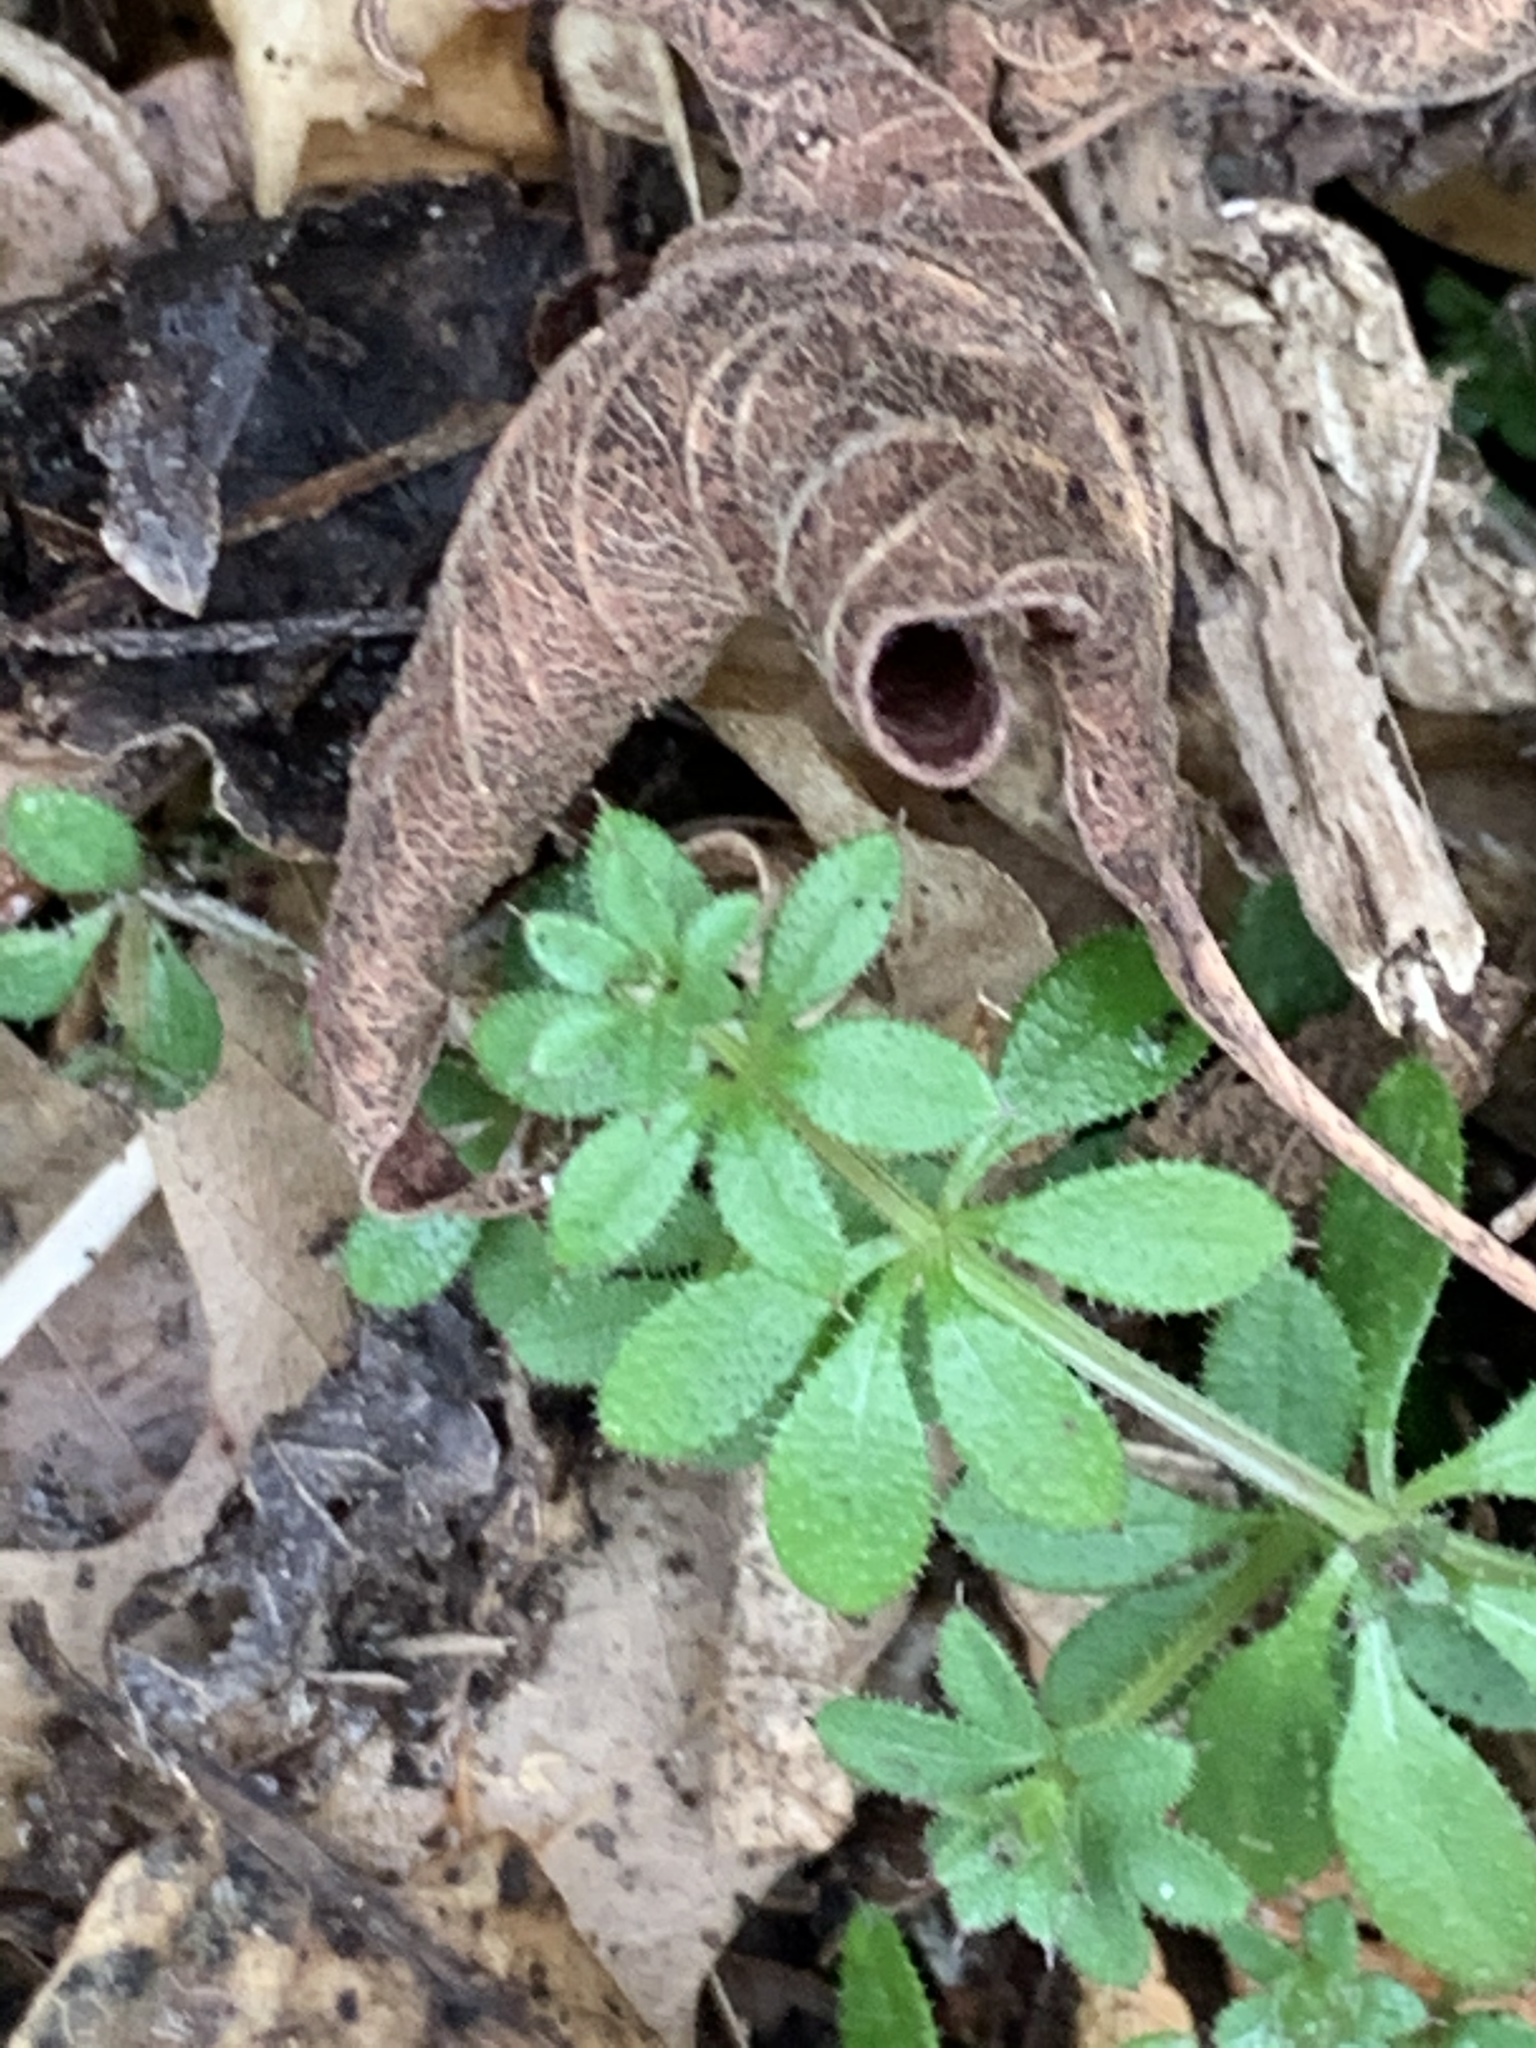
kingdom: Plantae
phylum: Tracheophyta
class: Magnoliopsida
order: Gentianales
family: Rubiaceae
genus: Galium
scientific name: Galium aparine
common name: Cleavers
